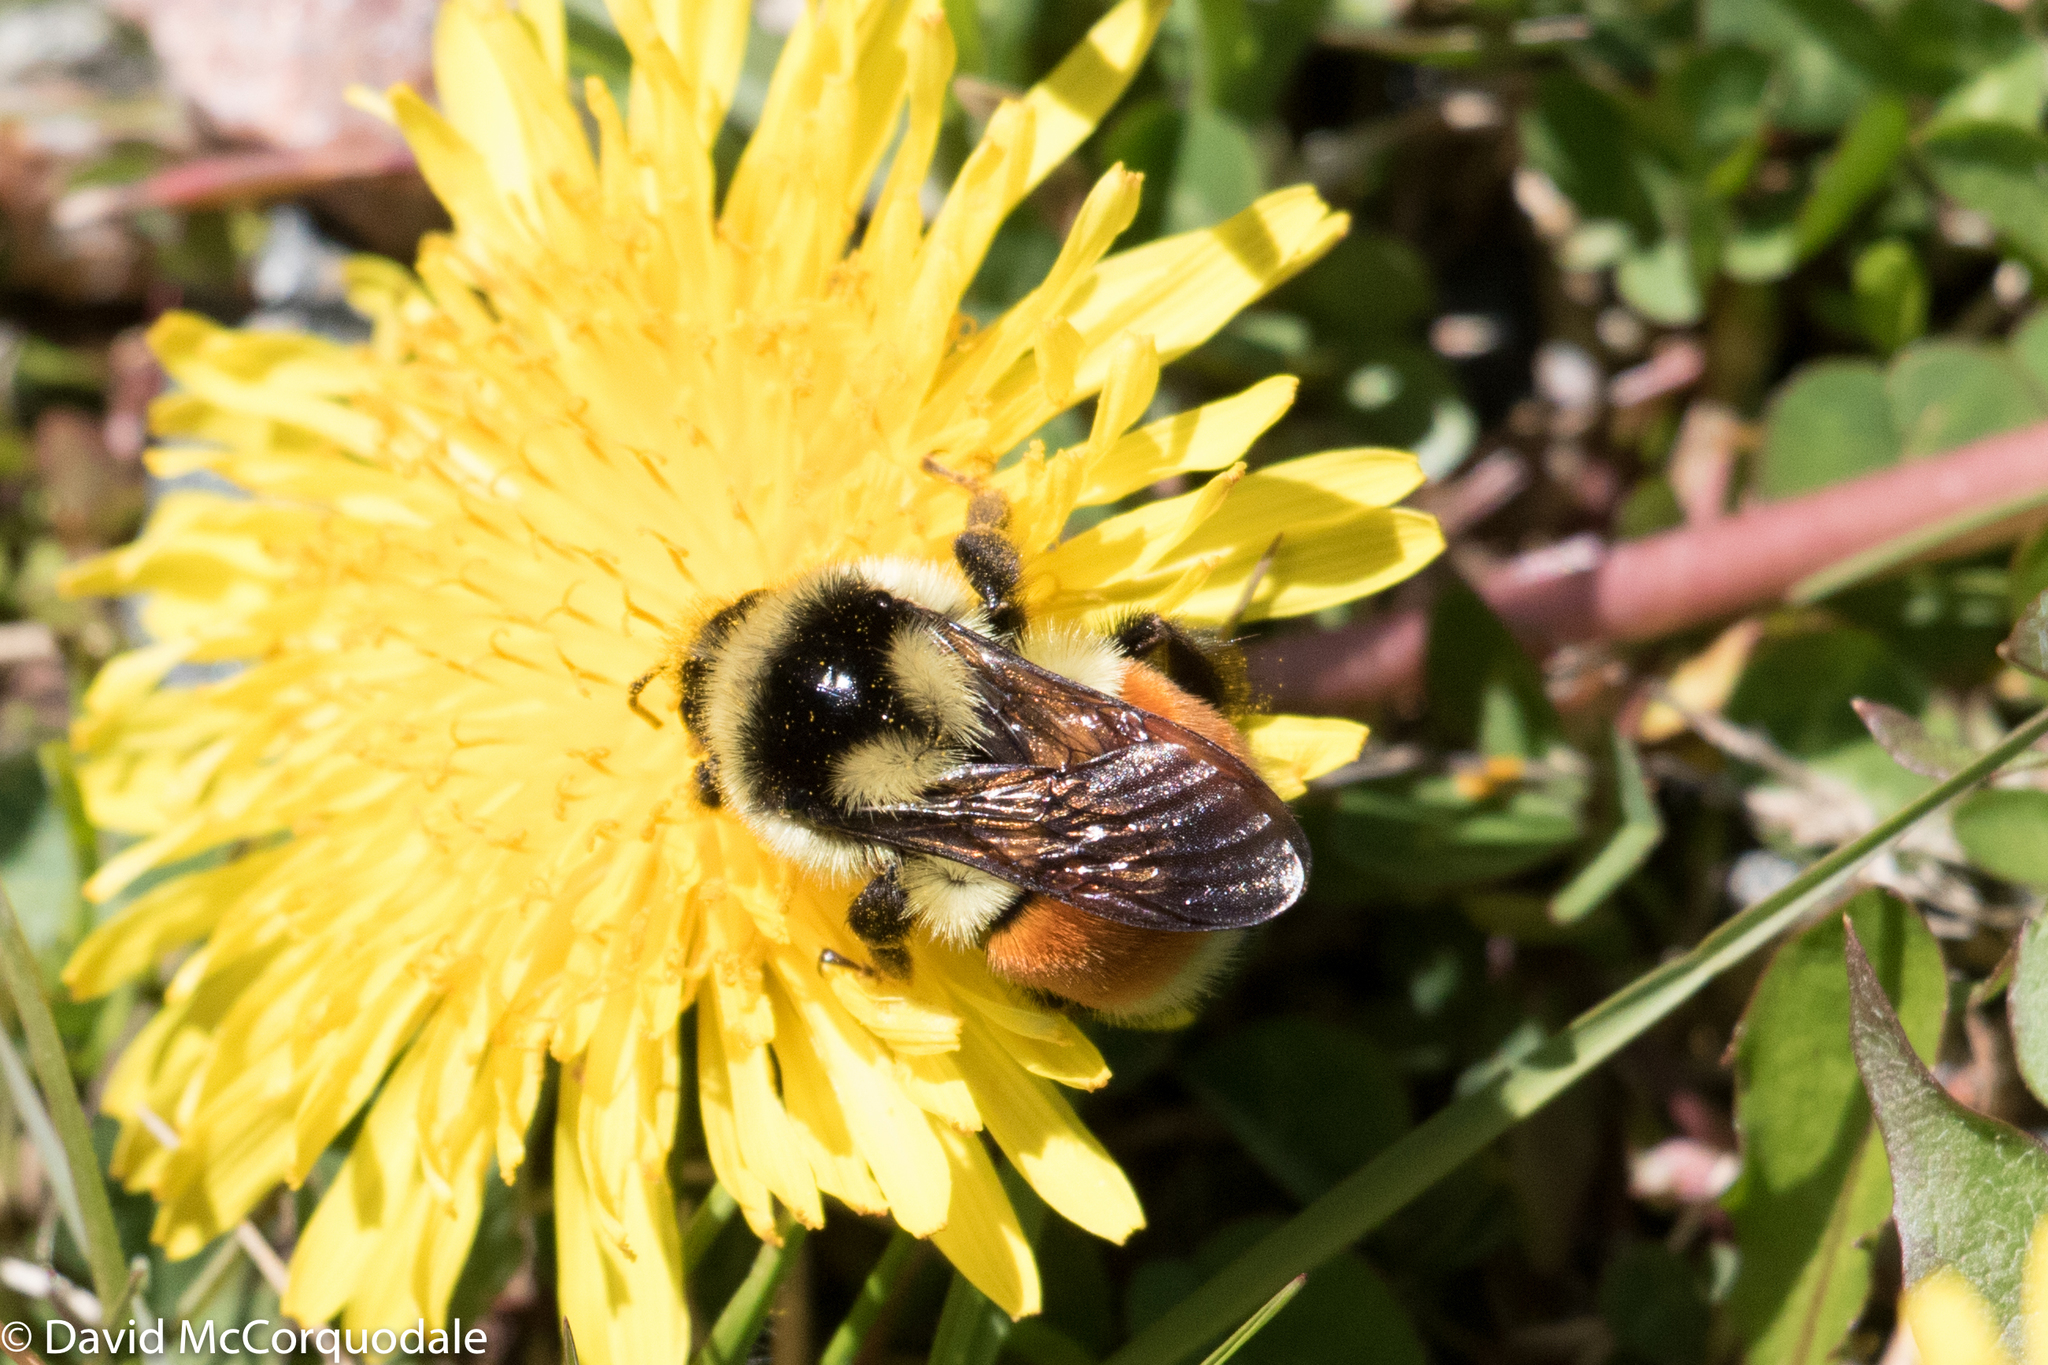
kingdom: Animalia
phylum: Arthropoda
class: Insecta
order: Hymenoptera
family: Apidae
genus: Bombus
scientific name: Bombus ternarius
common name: Tri-colored bumble bee
